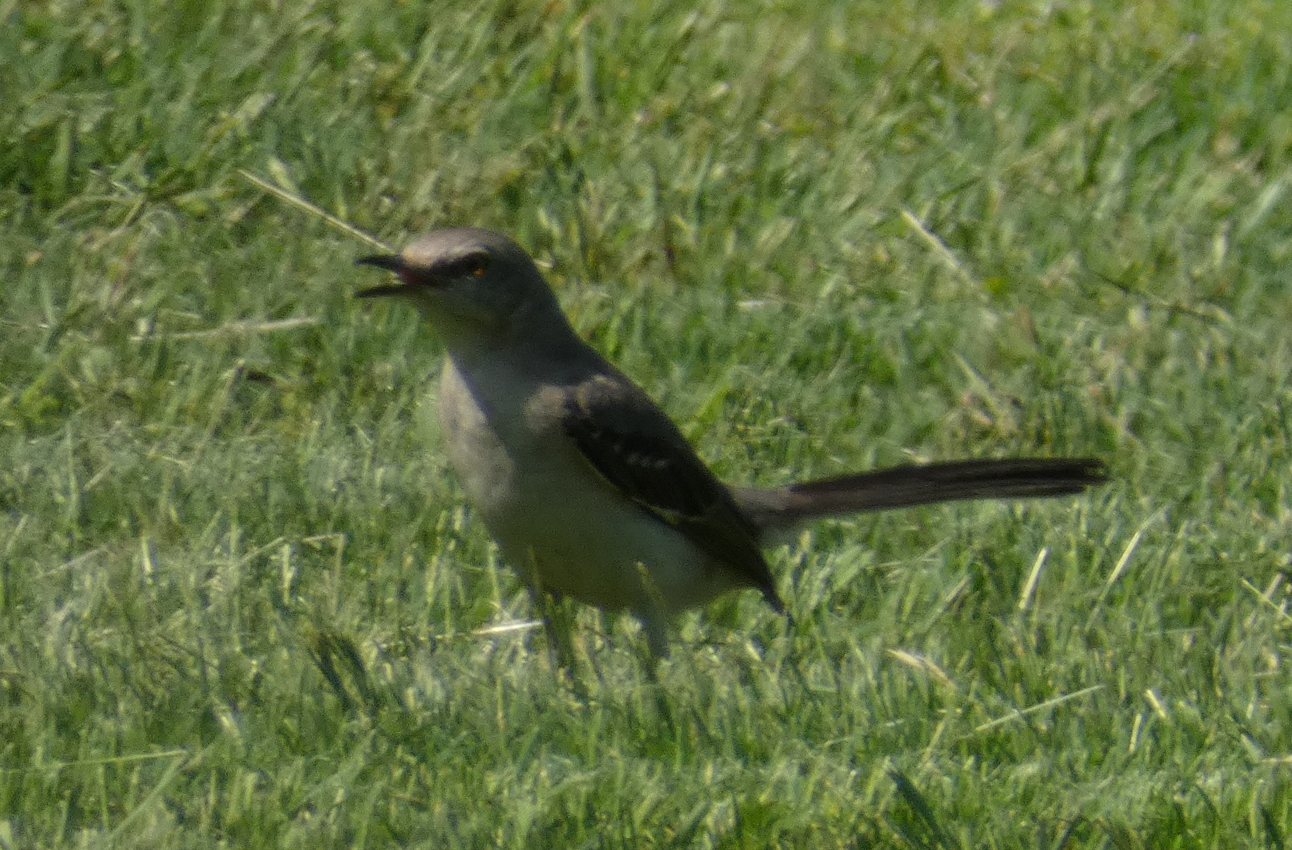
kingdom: Animalia
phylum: Chordata
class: Aves
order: Passeriformes
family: Mimidae
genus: Mimus
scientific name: Mimus polyglottos
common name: Northern mockingbird
